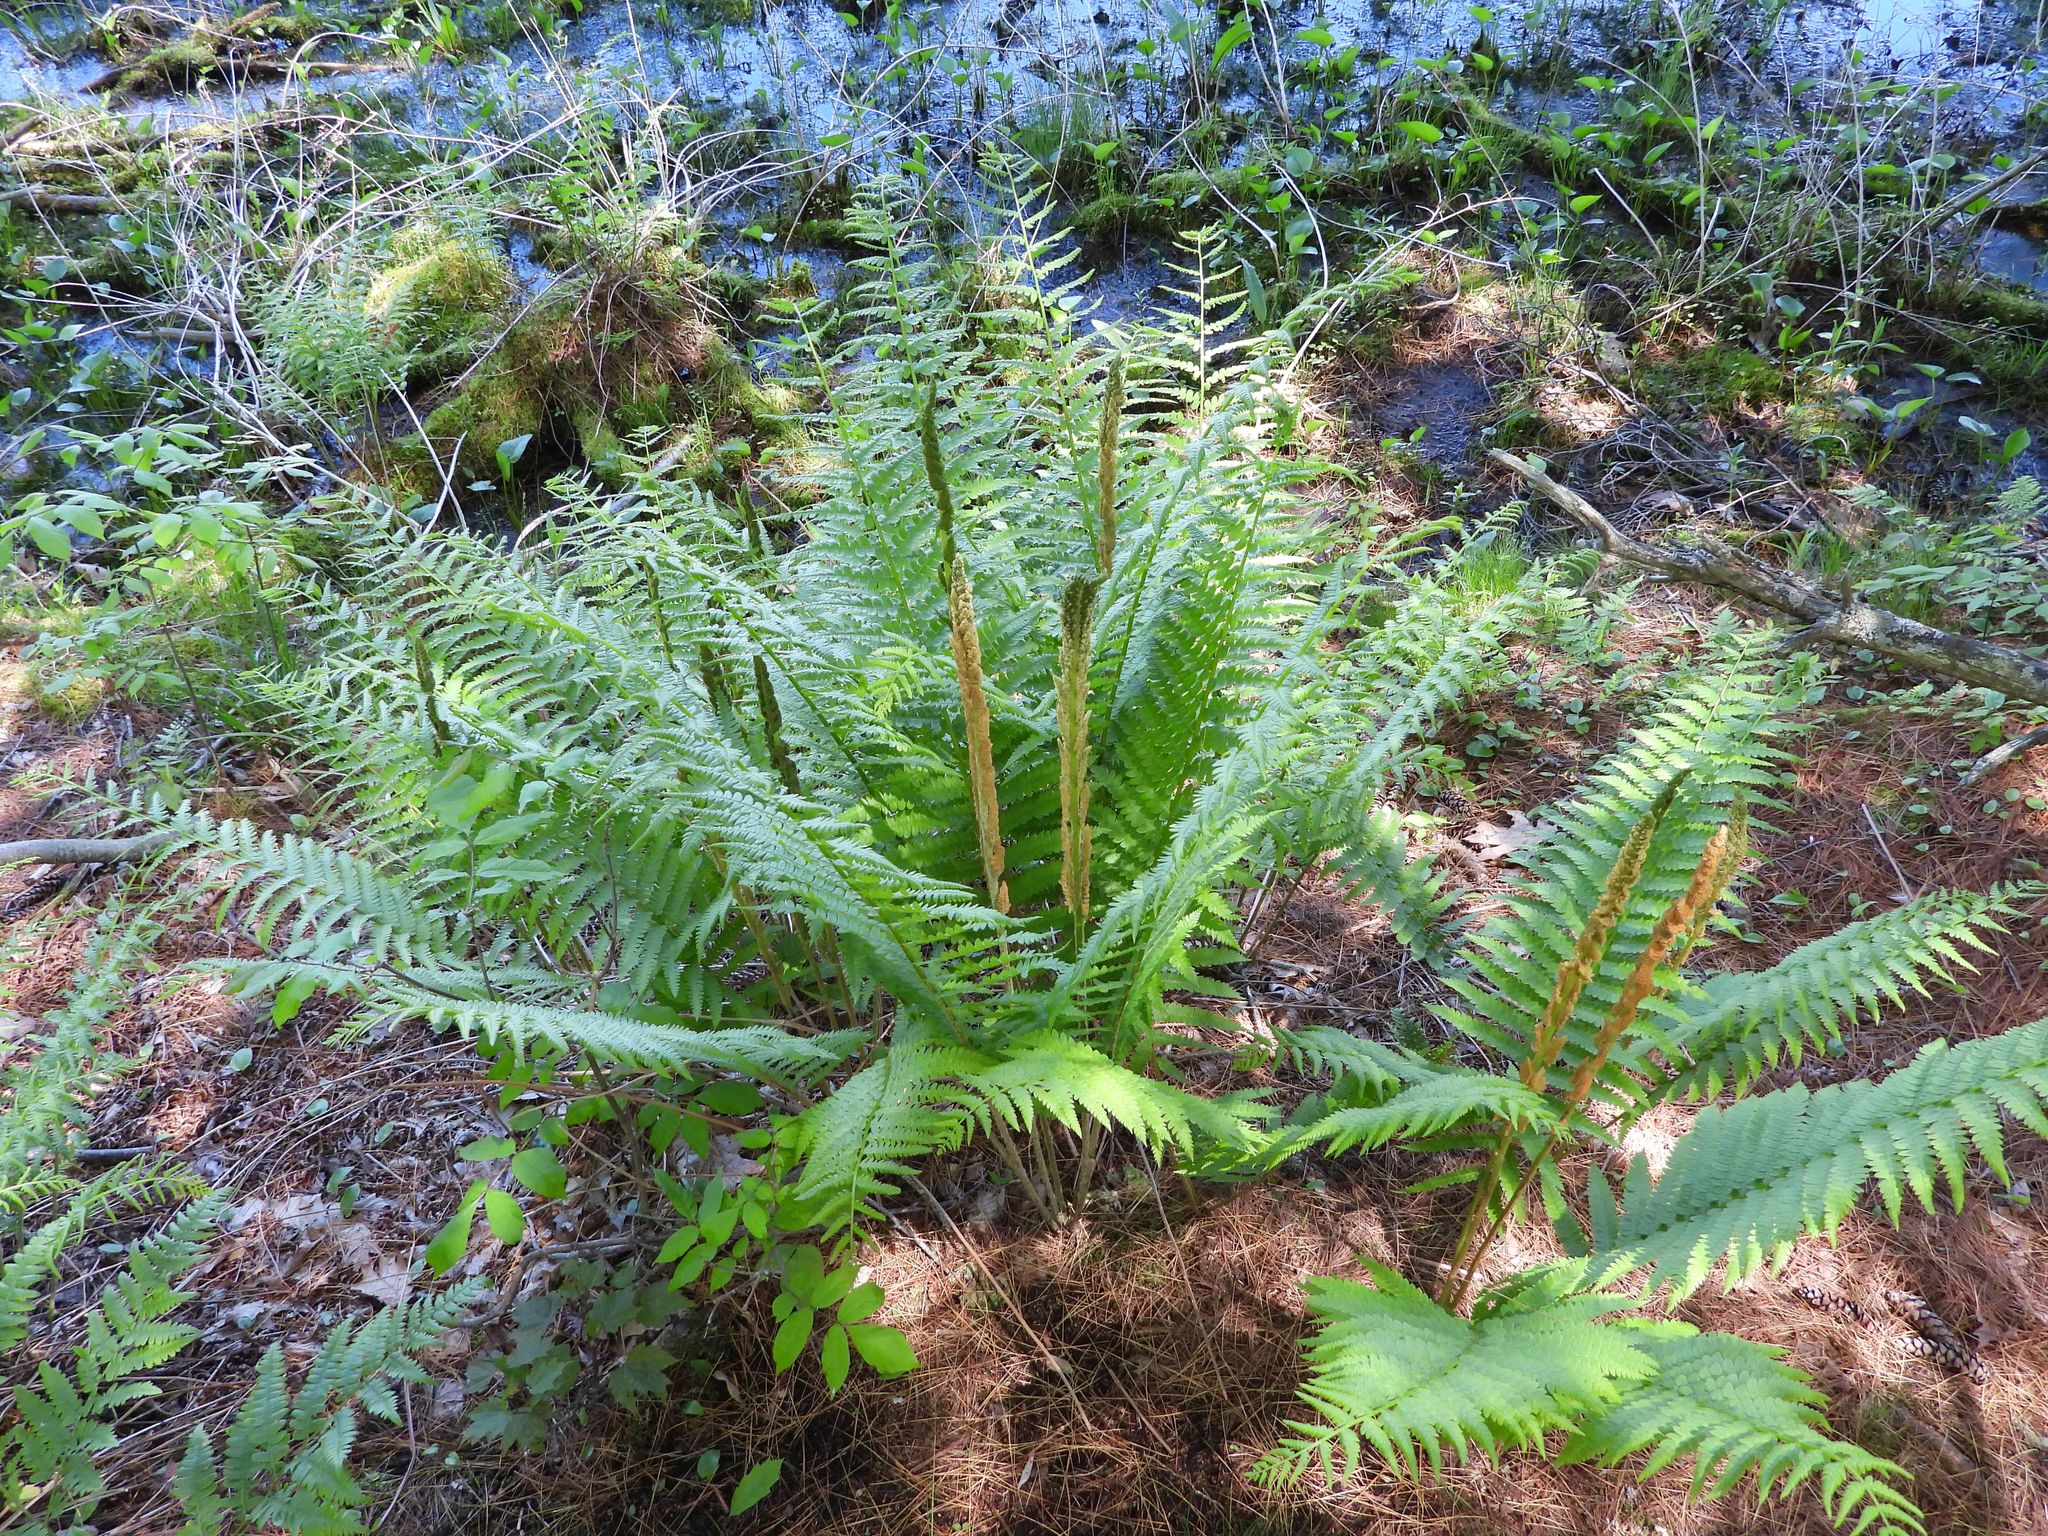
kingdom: Plantae
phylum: Tracheophyta
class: Polypodiopsida
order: Osmundales
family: Osmundaceae
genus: Osmundastrum
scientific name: Osmundastrum cinnamomeum
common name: Cinnamon fern
